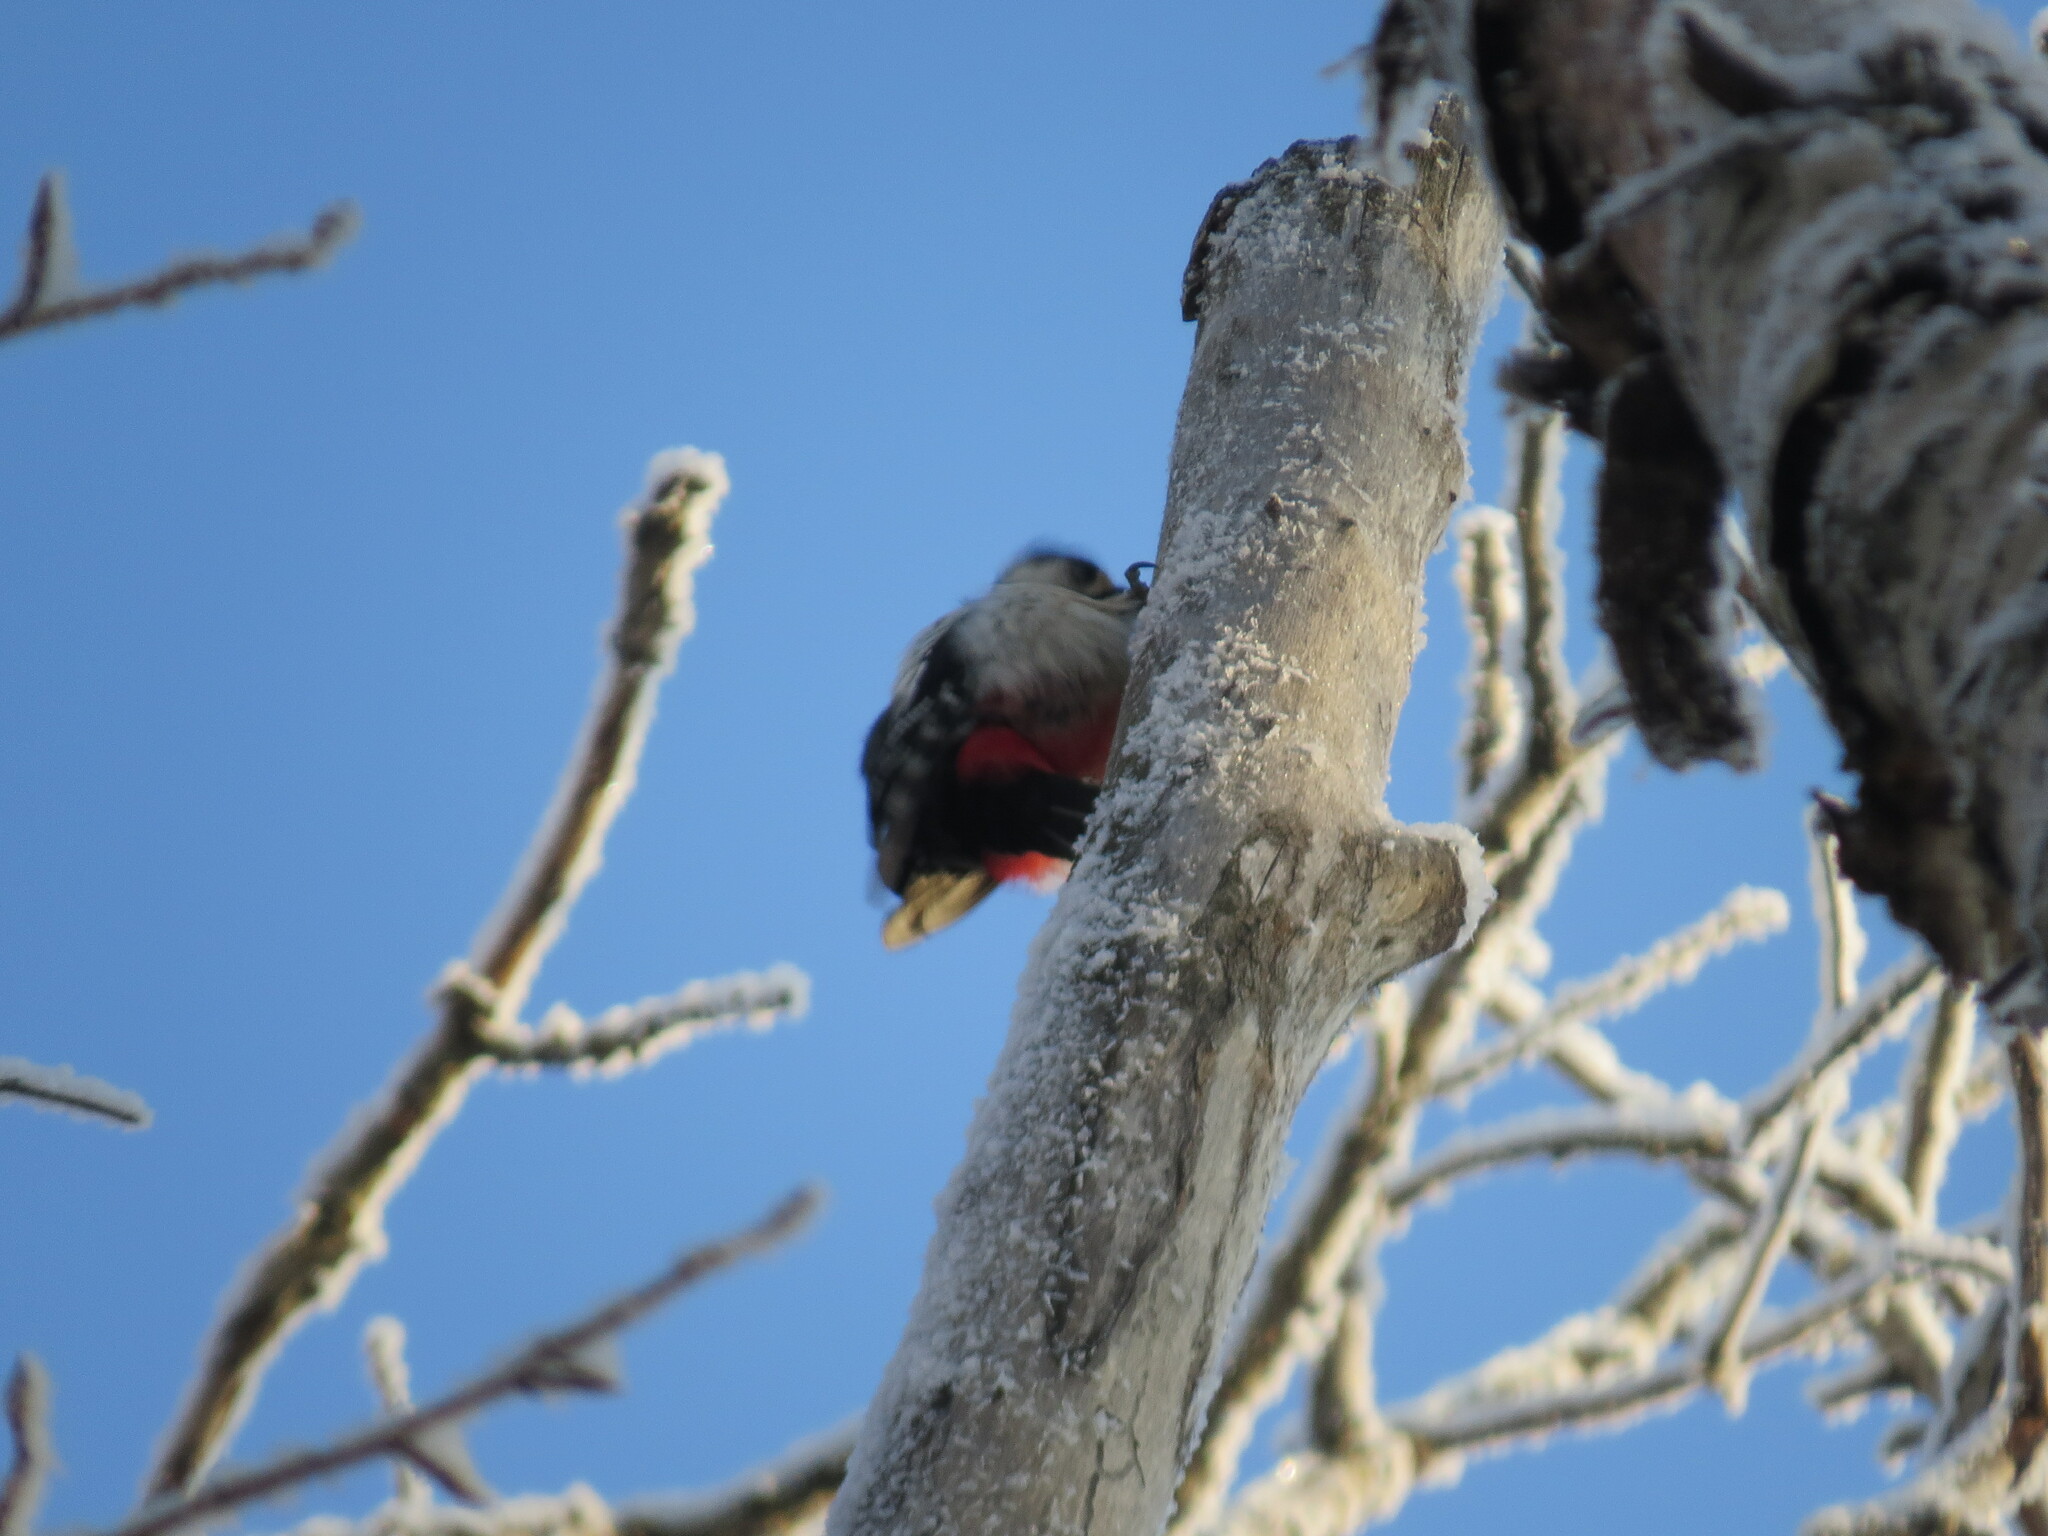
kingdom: Animalia
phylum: Chordata
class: Aves
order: Piciformes
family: Picidae
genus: Dendrocopos
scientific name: Dendrocopos major
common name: Great spotted woodpecker
